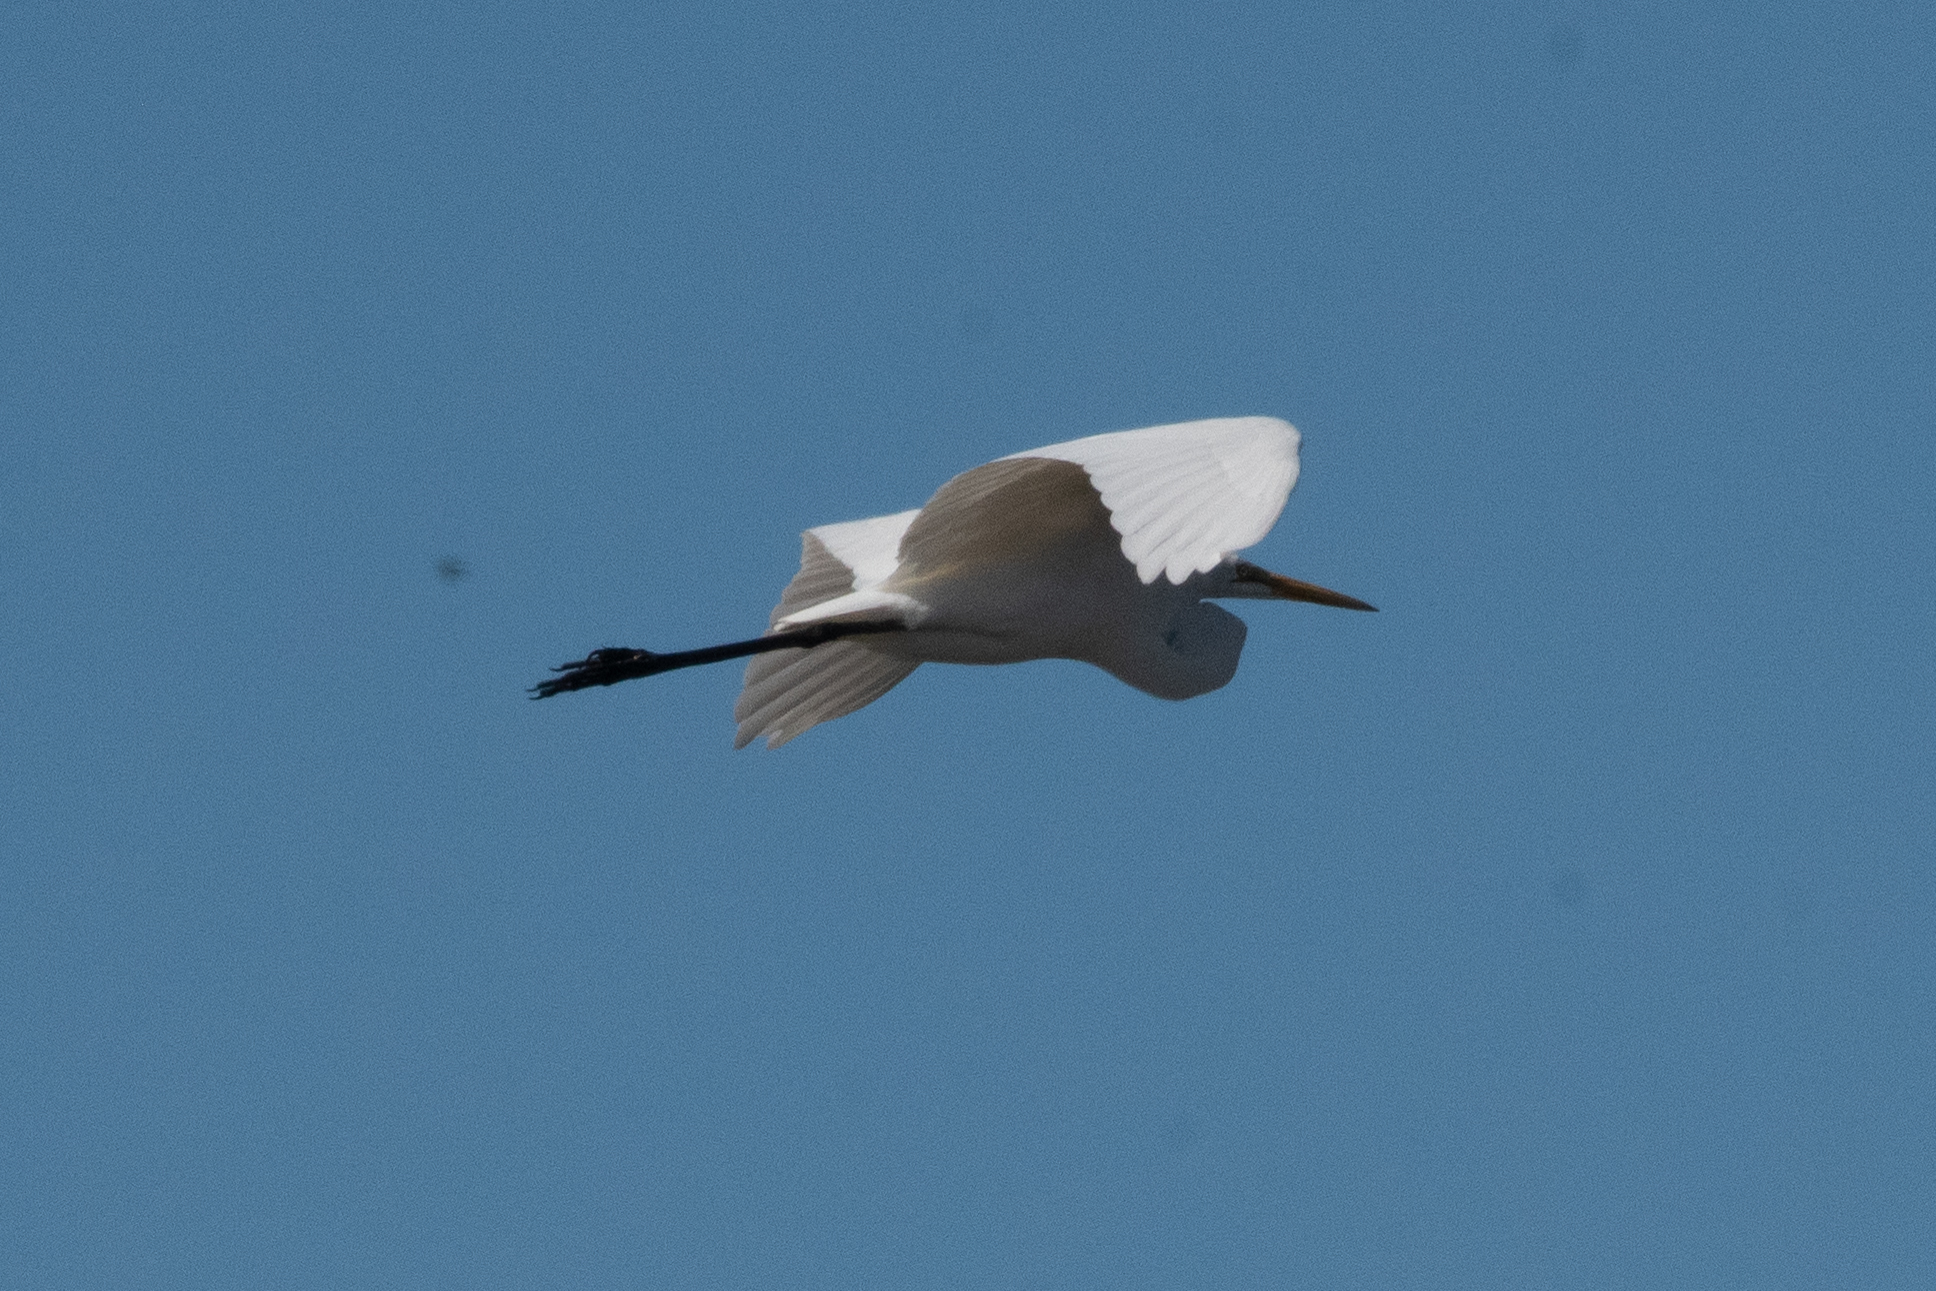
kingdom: Animalia
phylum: Chordata
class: Aves
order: Pelecaniformes
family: Ardeidae
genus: Ardea
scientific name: Ardea alba
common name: Great egret
